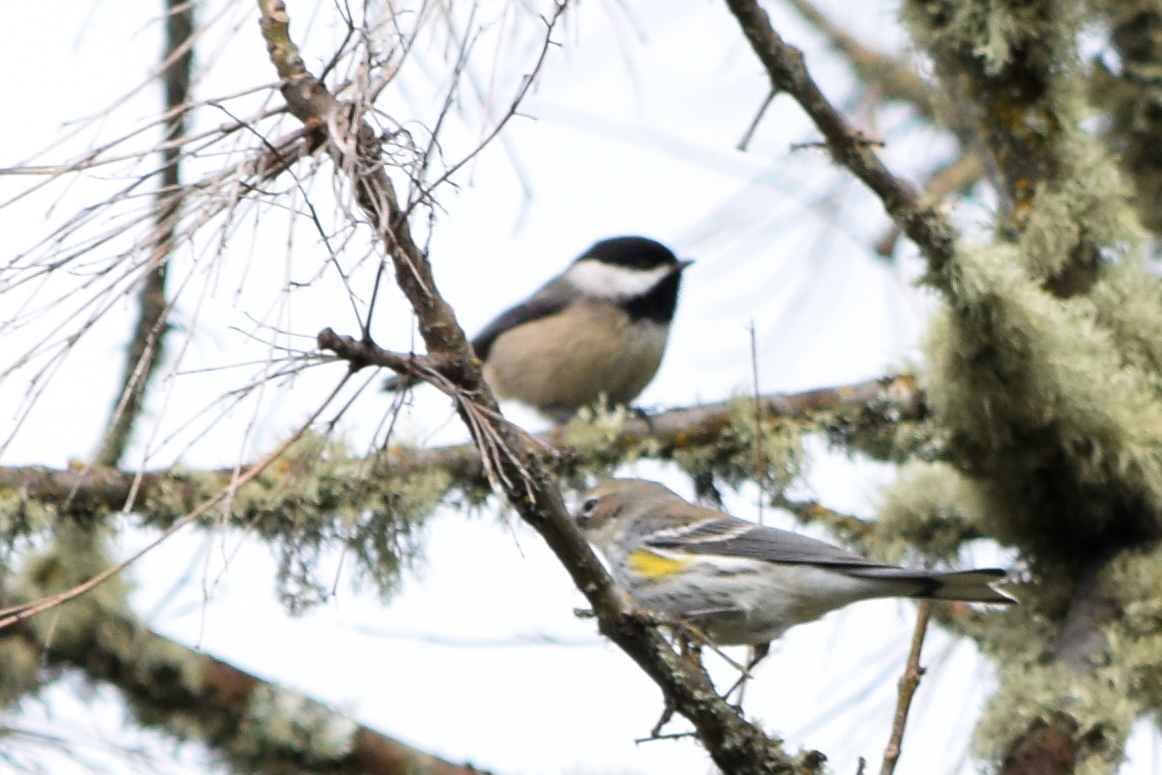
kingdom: Animalia
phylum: Chordata
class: Aves
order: Passeriformes
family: Paridae
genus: Poecile
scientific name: Poecile atricapillus
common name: Black-capped chickadee
